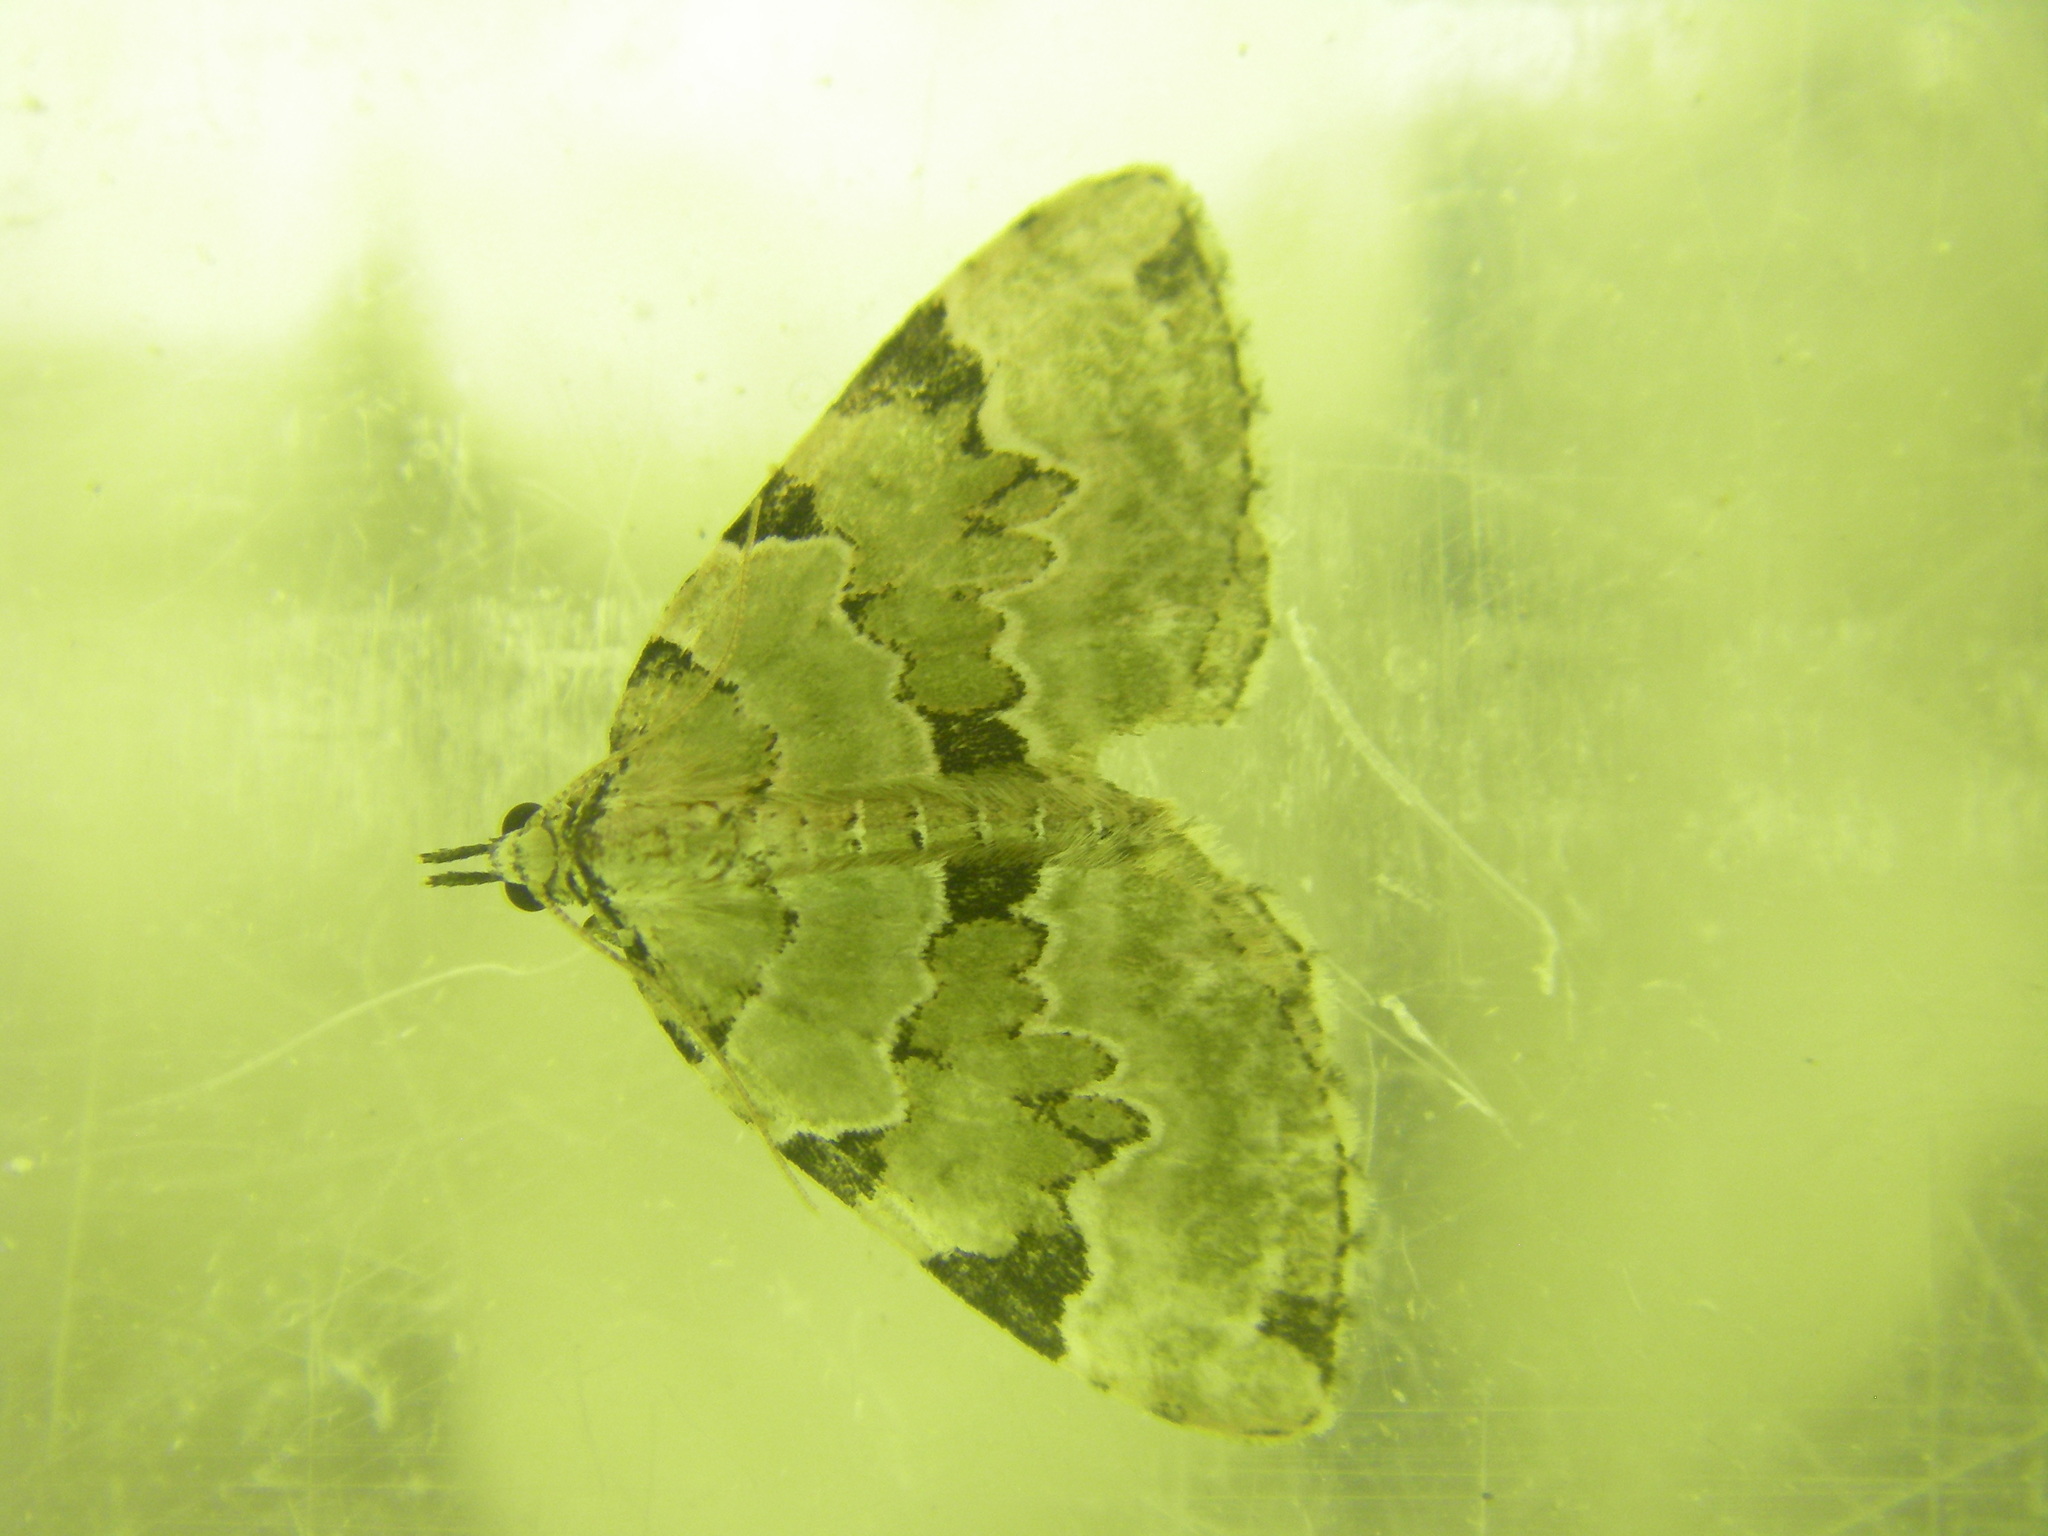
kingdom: Animalia
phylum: Arthropoda
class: Insecta
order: Lepidoptera
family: Geometridae
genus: Colostygia
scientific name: Colostygia pectinataria
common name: Green carpet
